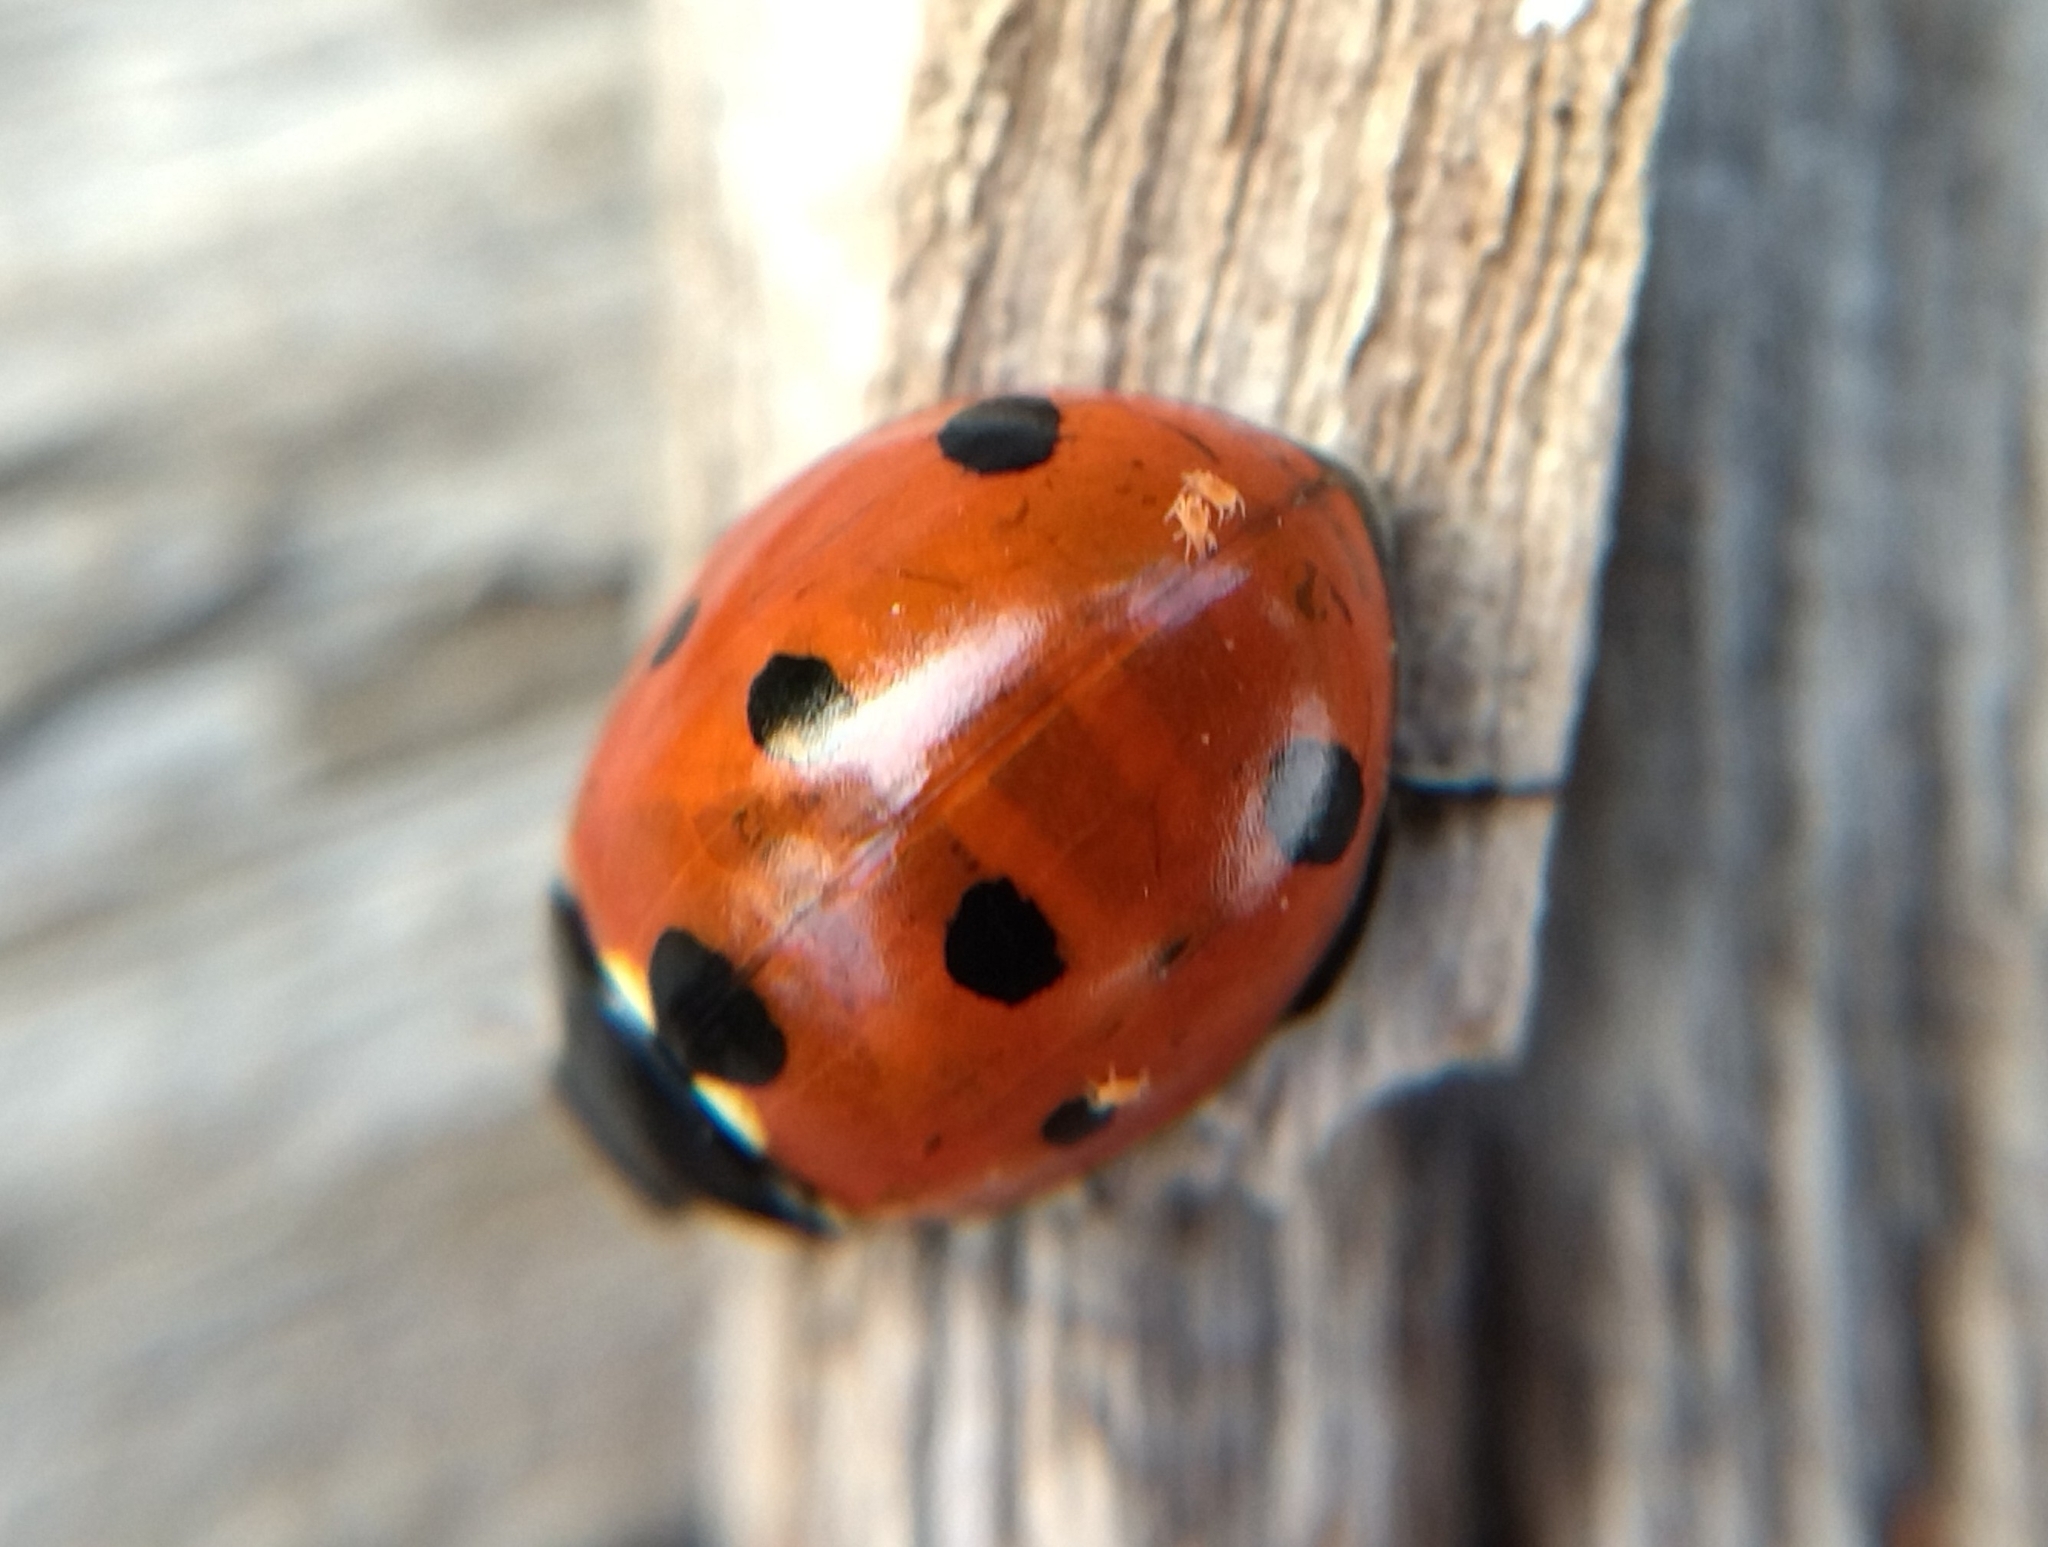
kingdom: Animalia
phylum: Arthropoda
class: Insecta
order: Coleoptera
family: Coccinellidae
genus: Coccinella
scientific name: Coccinella septempunctata
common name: Sevenspotted lady beetle
